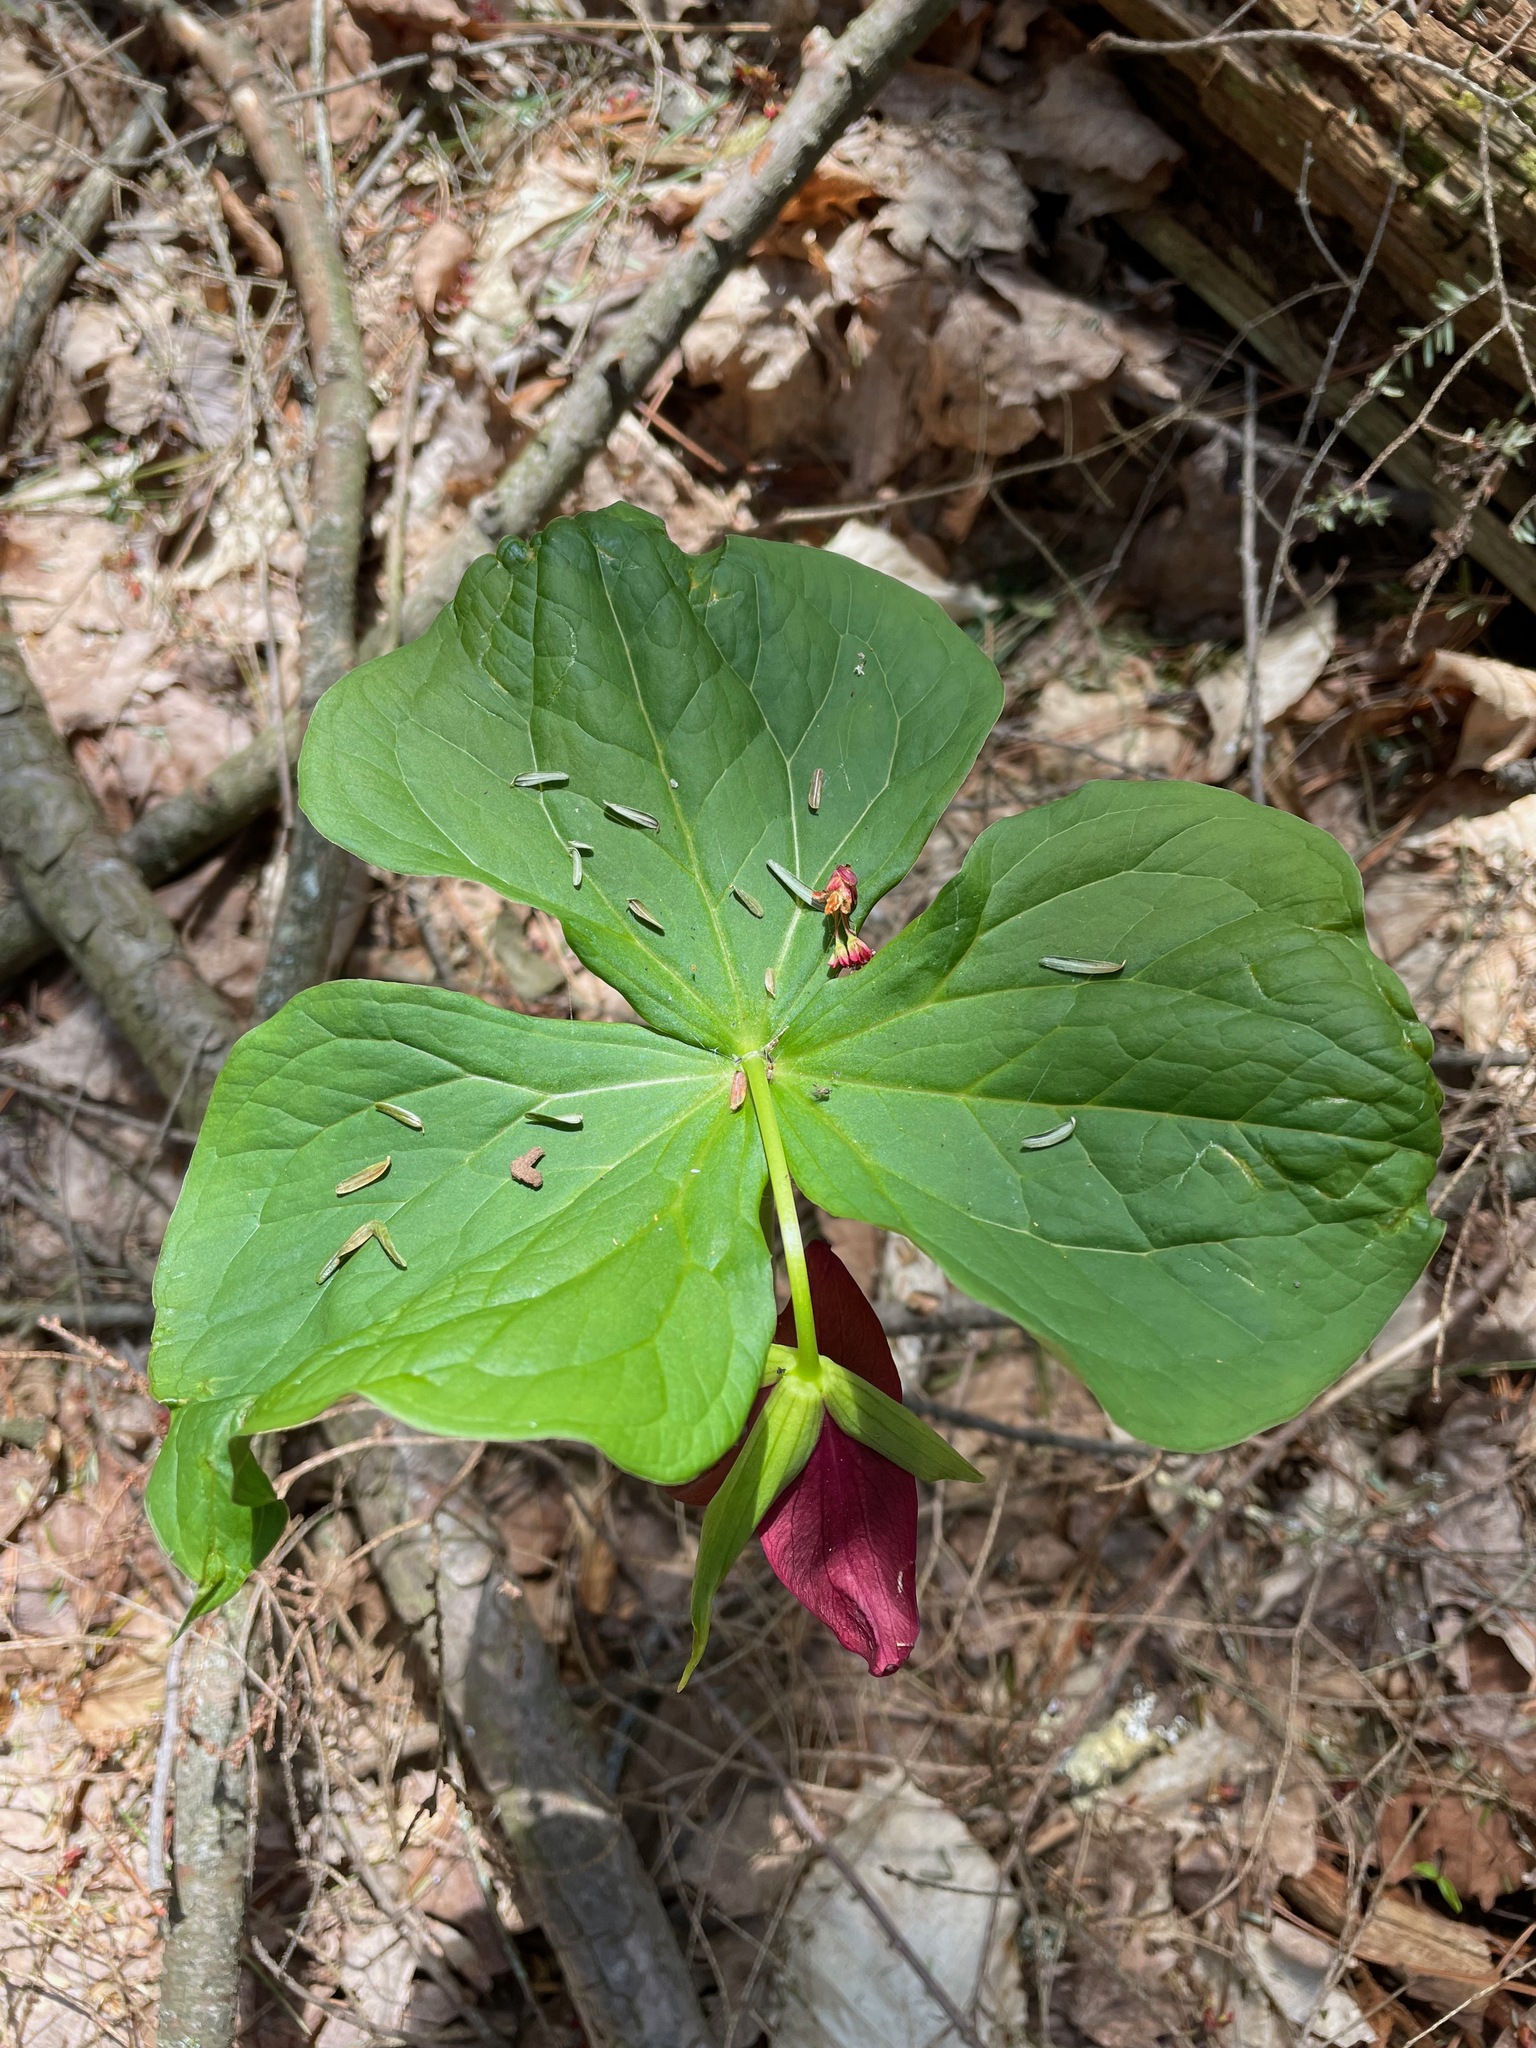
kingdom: Plantae
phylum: Tracheophyta
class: Liliopsida
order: Liliales
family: Melanthiaceae
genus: Trillium
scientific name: Trillium erectum
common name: Purple trillium
